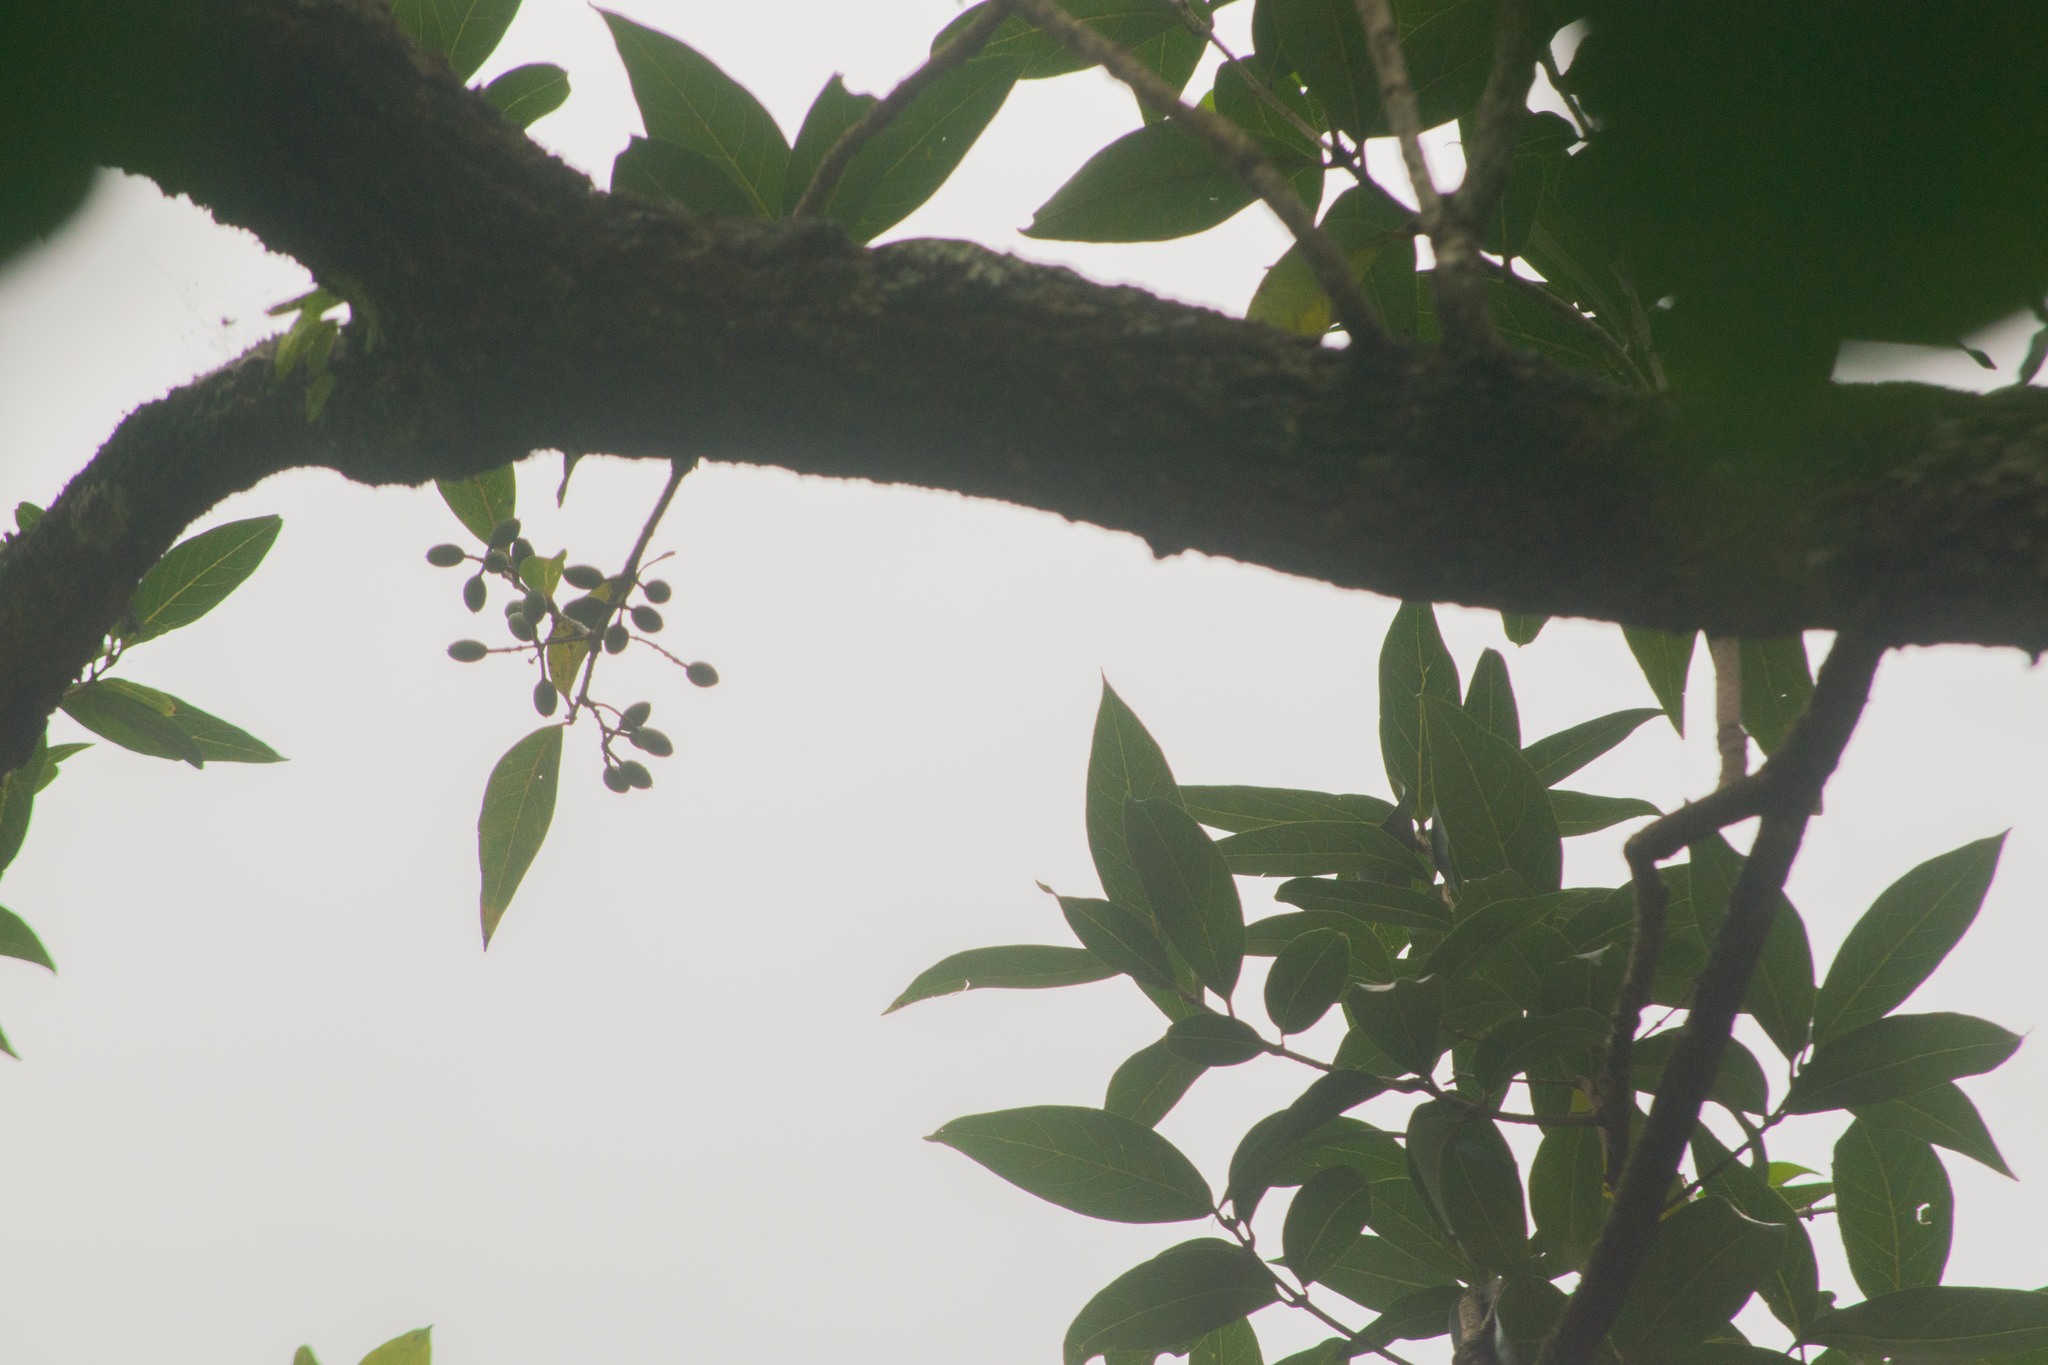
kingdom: Plantae
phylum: Tracheophyta
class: Magnoliopsida
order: Lamiales
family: Oleaceae
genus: Nestegis
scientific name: Nestegis sandwicensis
